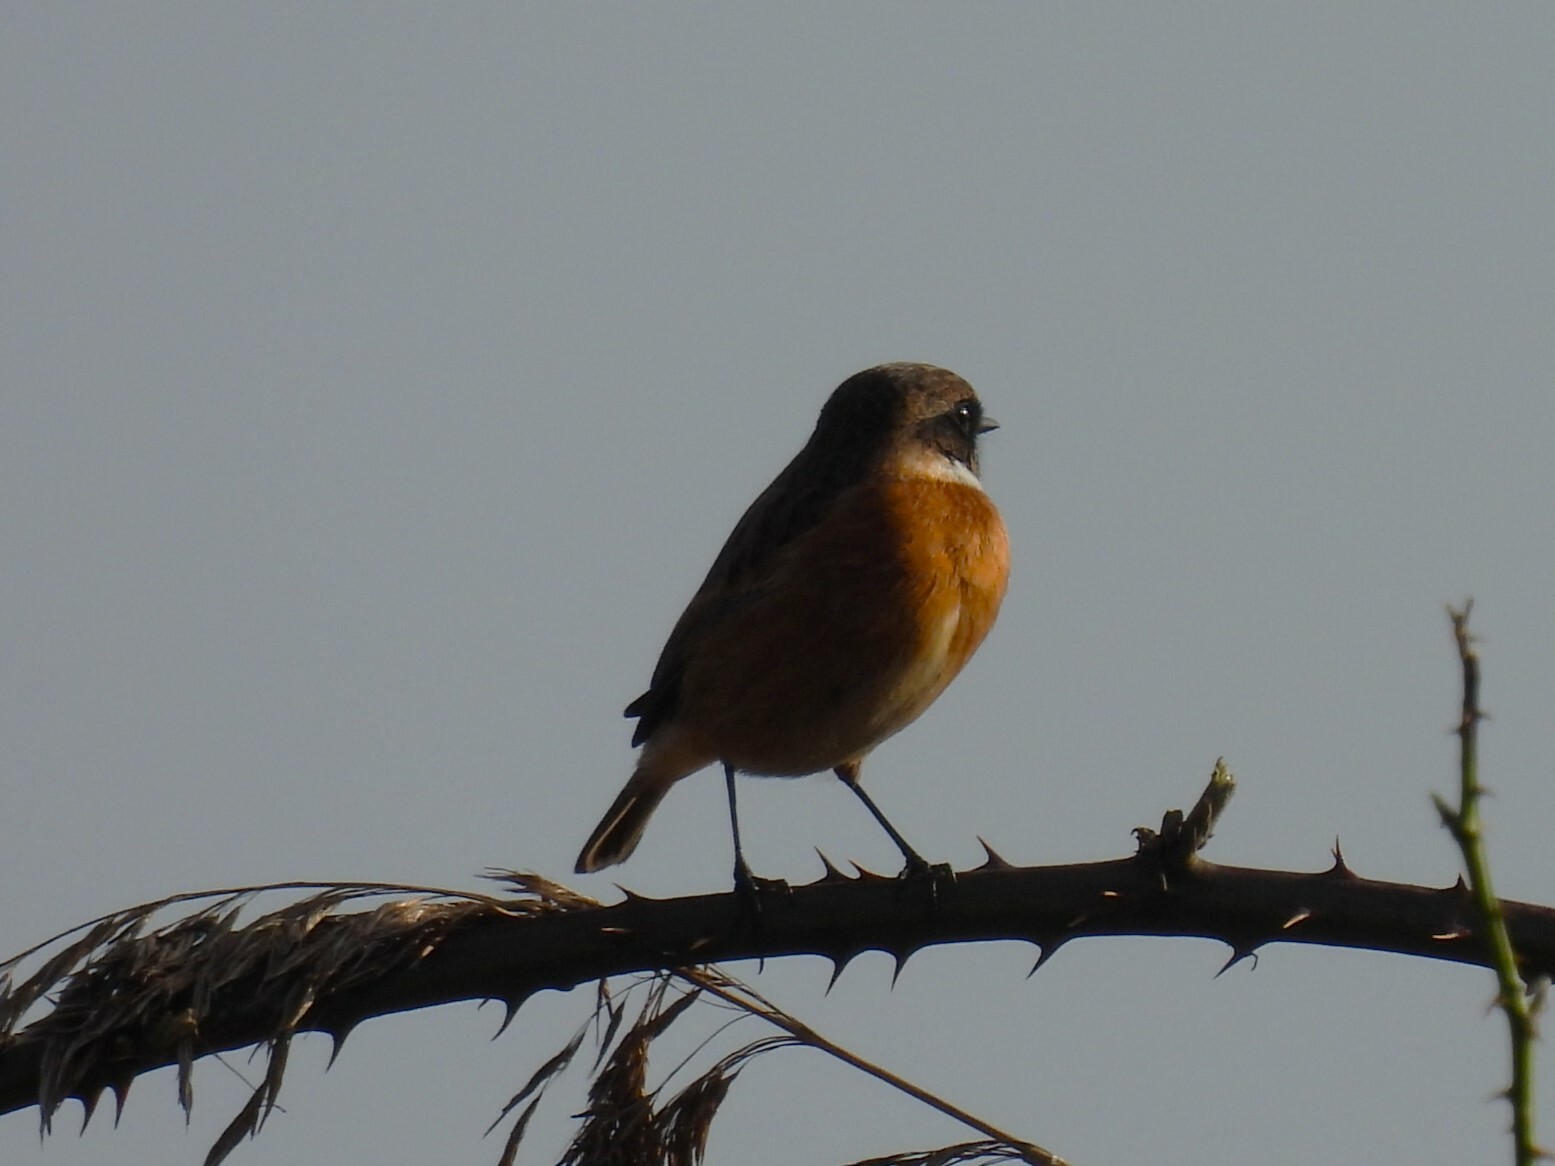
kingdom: Animalia
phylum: Chordata
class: Aves
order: Passeriformes
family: Muscicapidae
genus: Saxicola
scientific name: Saxicola rubicola
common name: European stonechat
